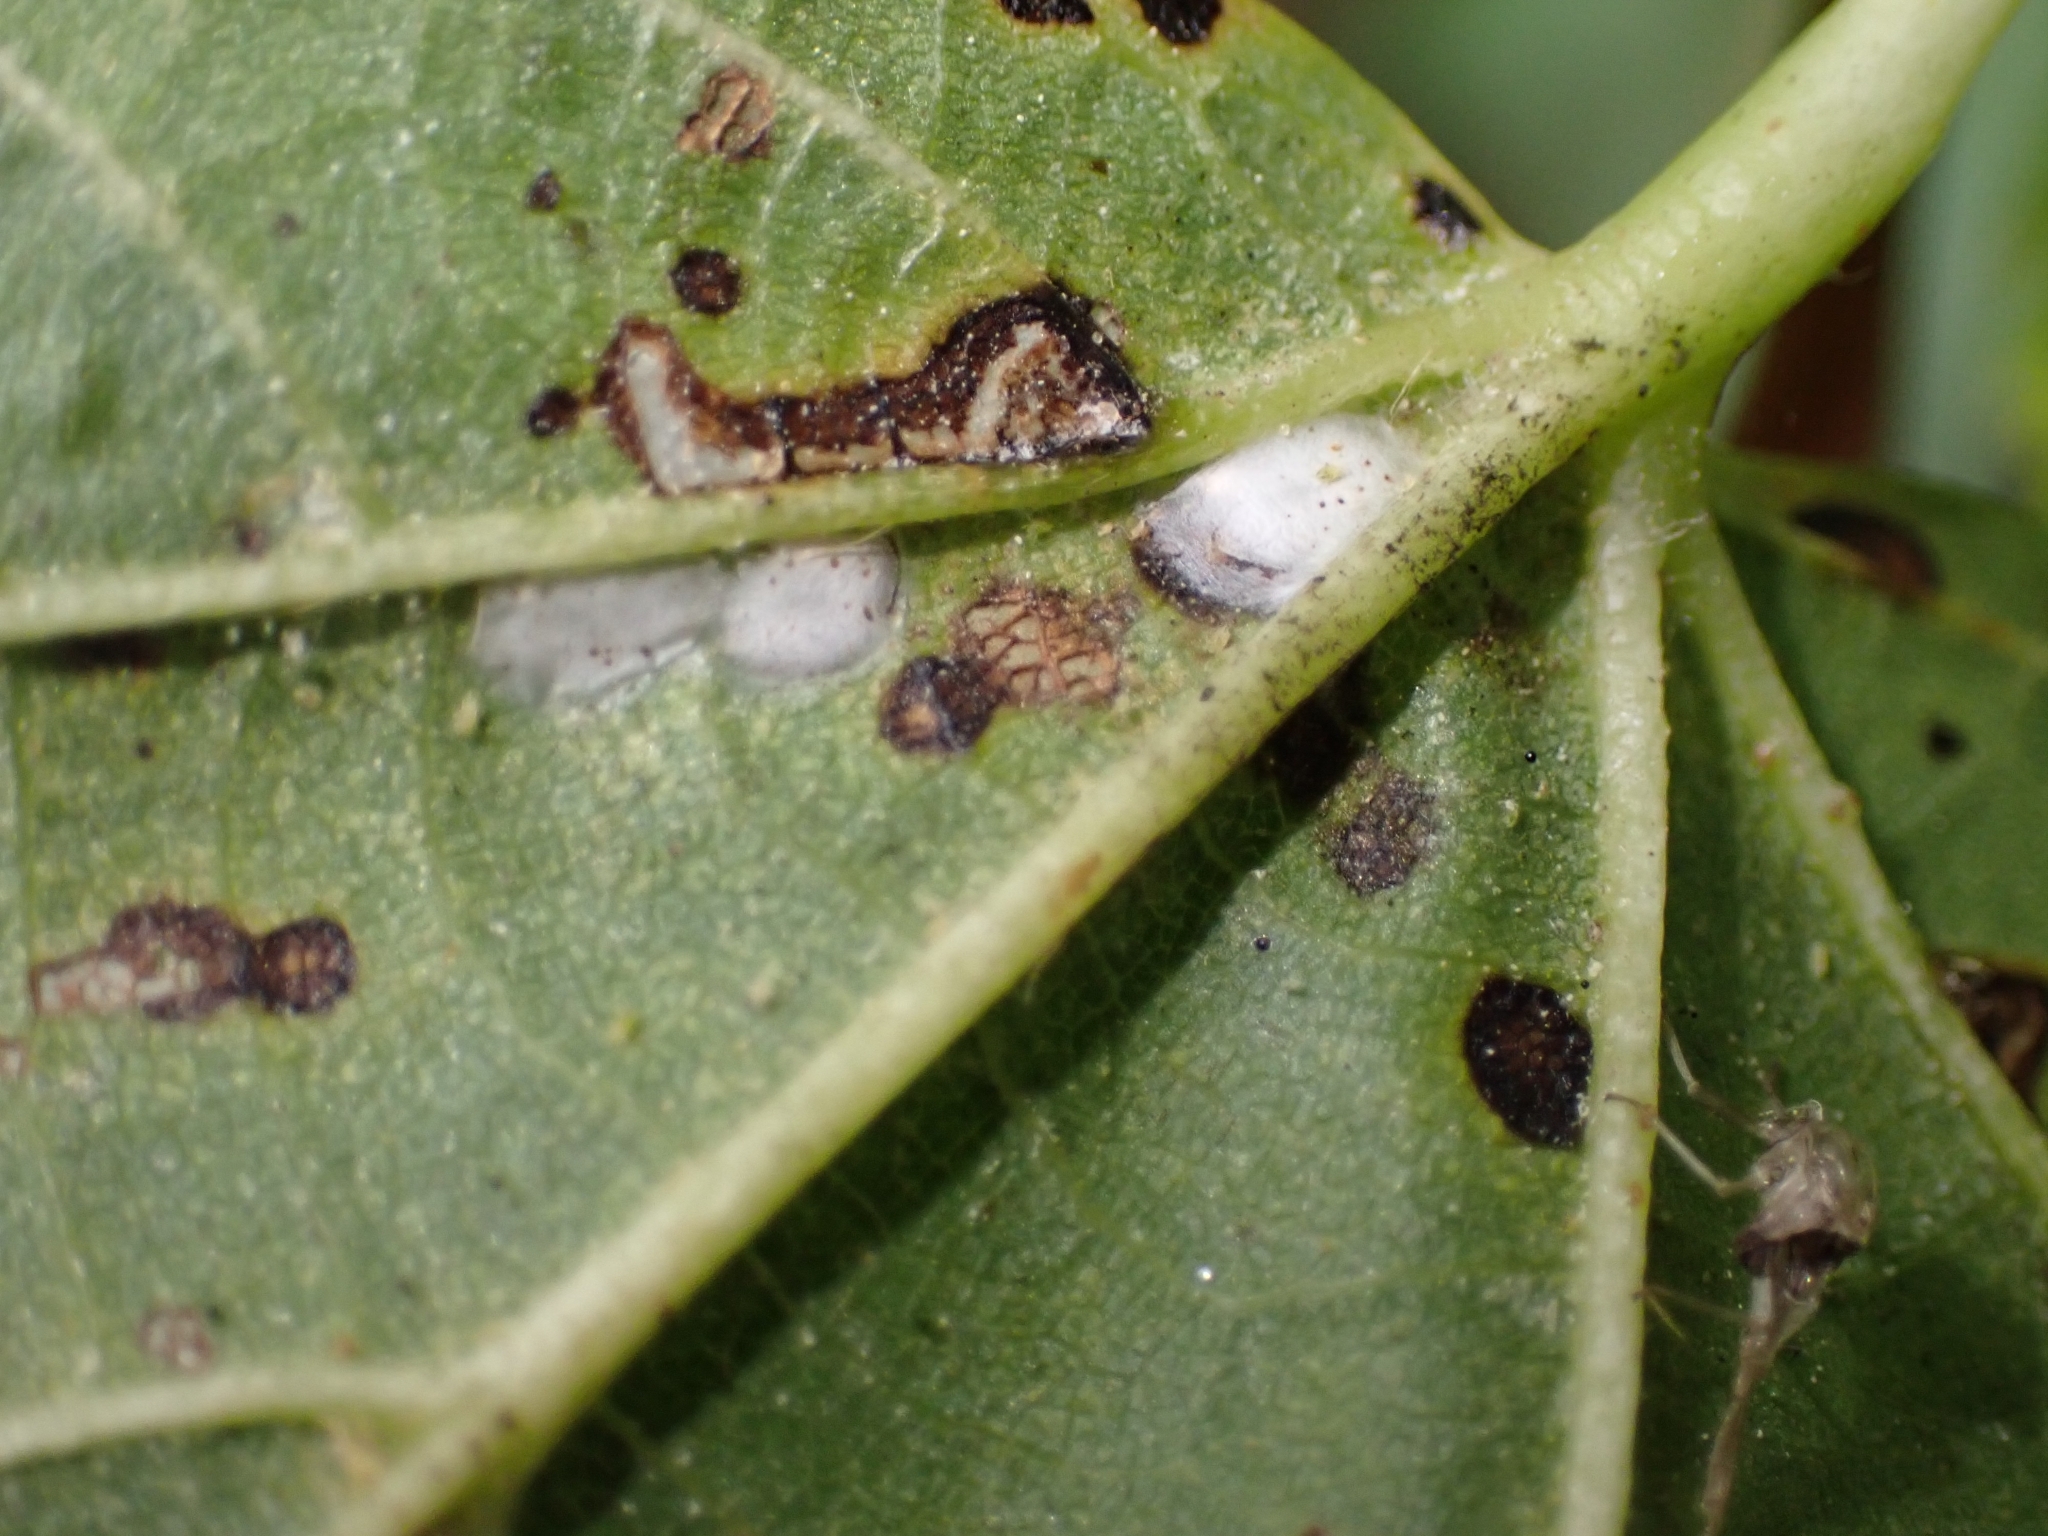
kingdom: Animalia
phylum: Arthropoda
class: Insecta
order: Lepidoptera
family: Bucculatricidae
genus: Bucculatrix
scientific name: Bucculatrix thoracella
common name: Lime bent-wing
